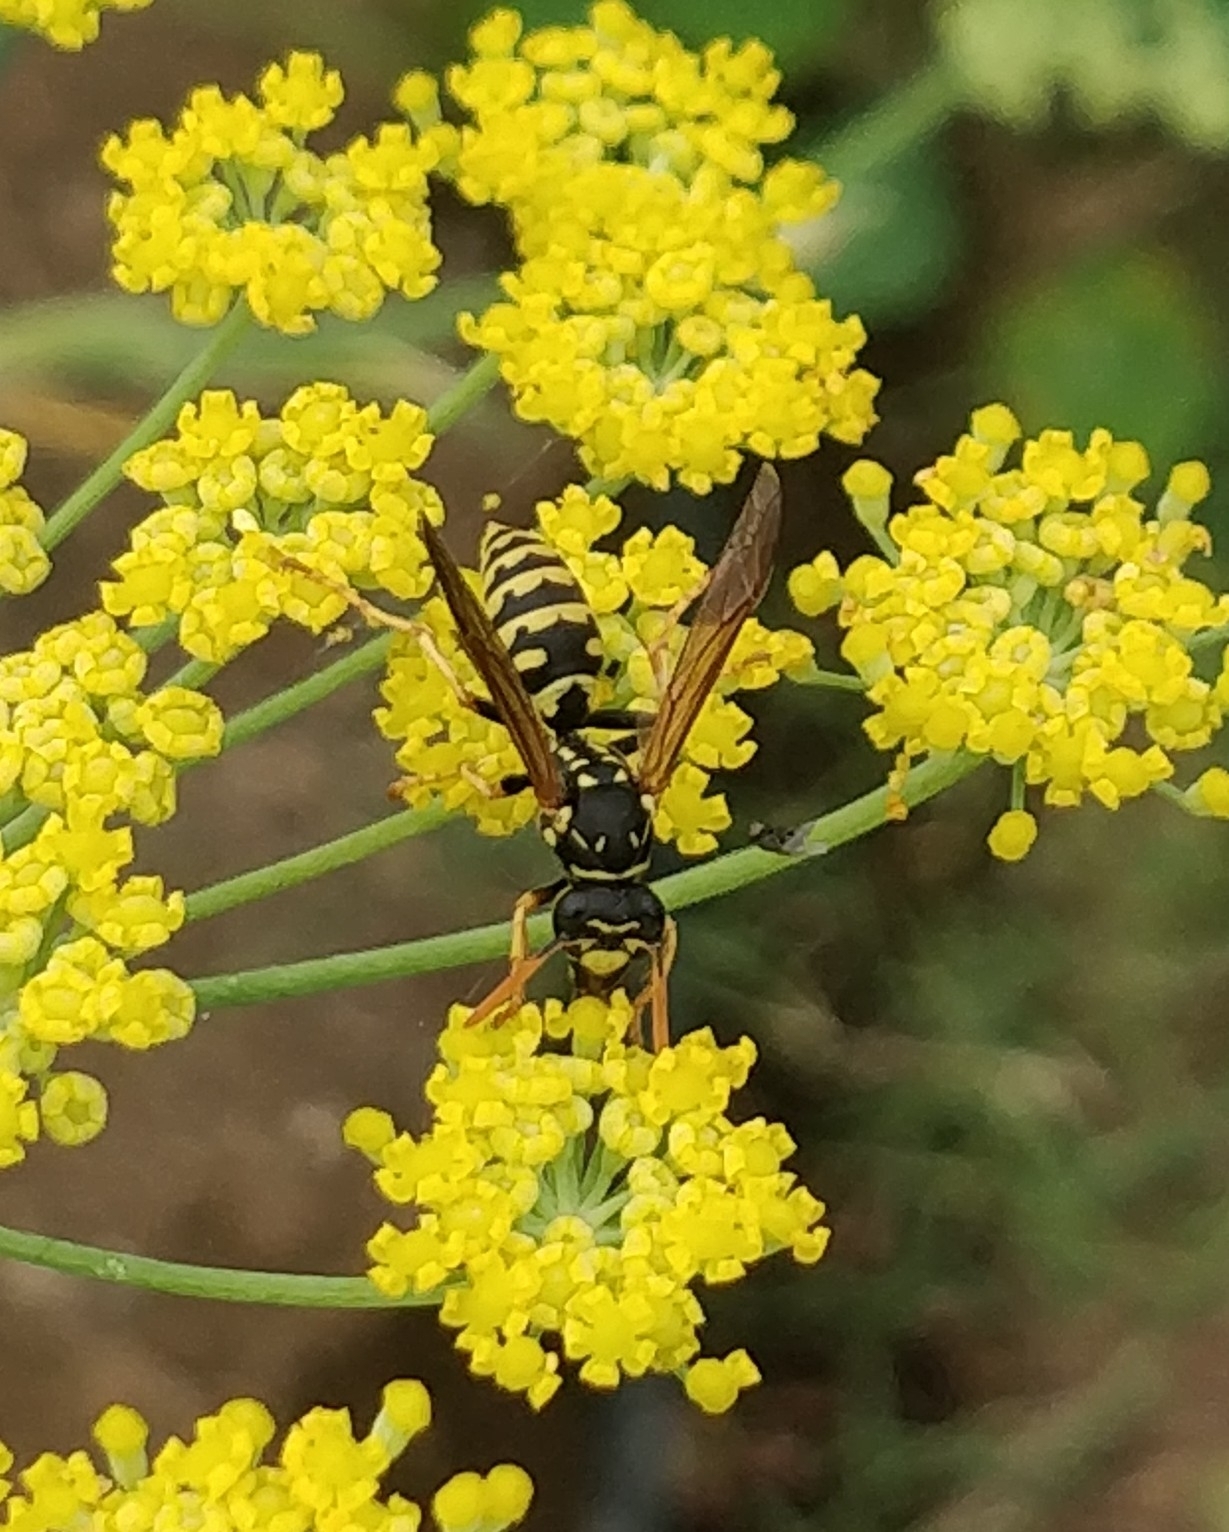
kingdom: Animalia
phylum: Arthropoda
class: Insecta
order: Hymenoptera
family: Eumenidae
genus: Polistes
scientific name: Polistes dominula
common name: Paper wasp
